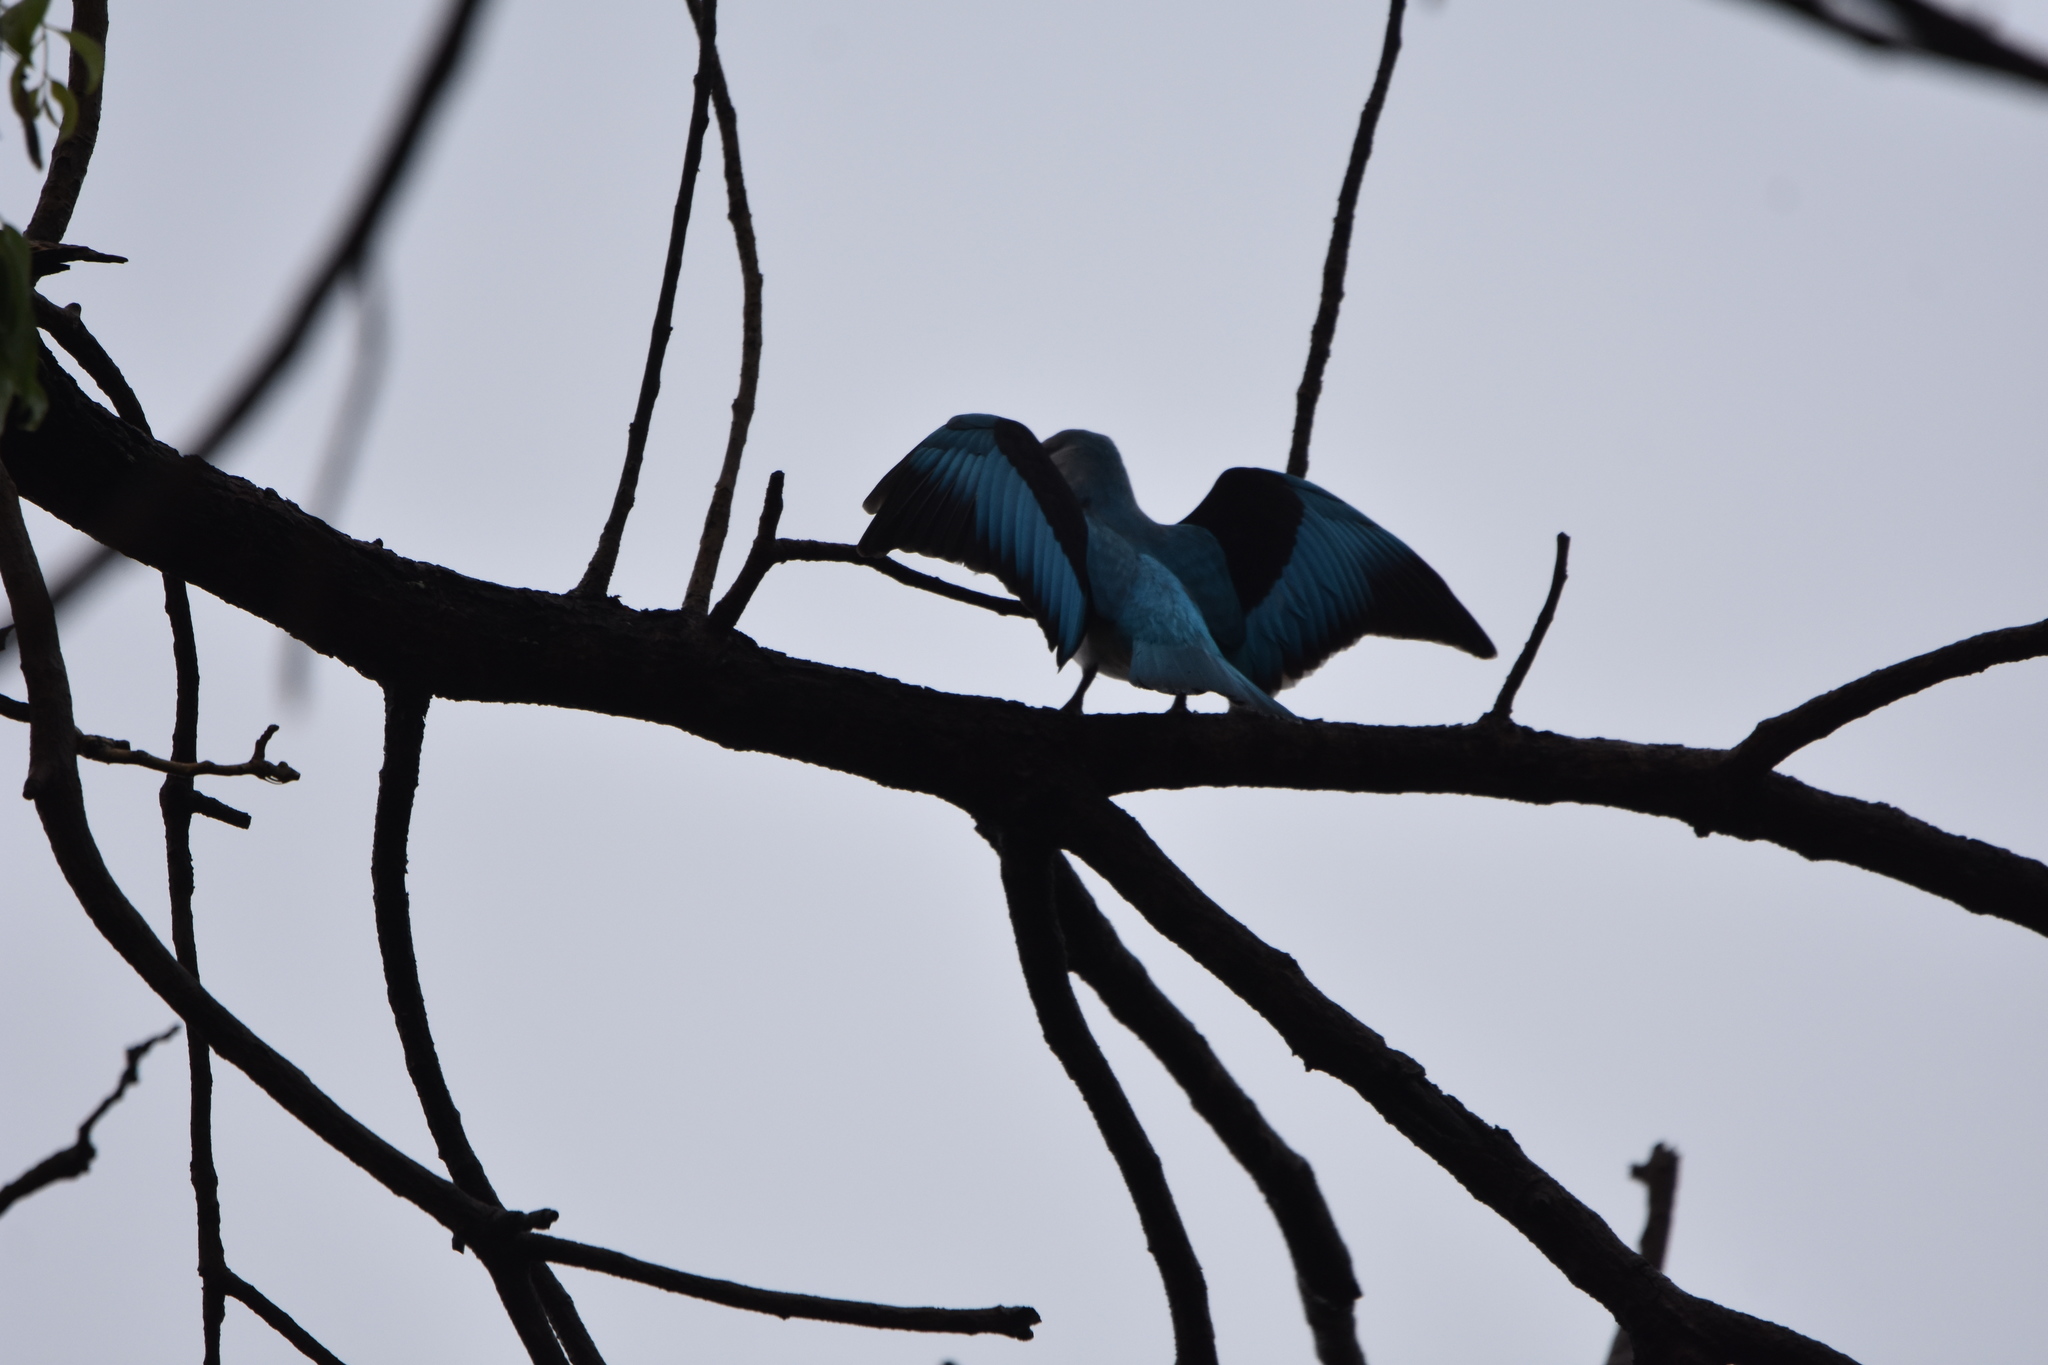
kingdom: Animalia
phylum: Chordata
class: Aves
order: Coraciiformes
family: Alcedinidae
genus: Halcyon
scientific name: Halcyon senegalensis
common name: Woodland kingfisher
